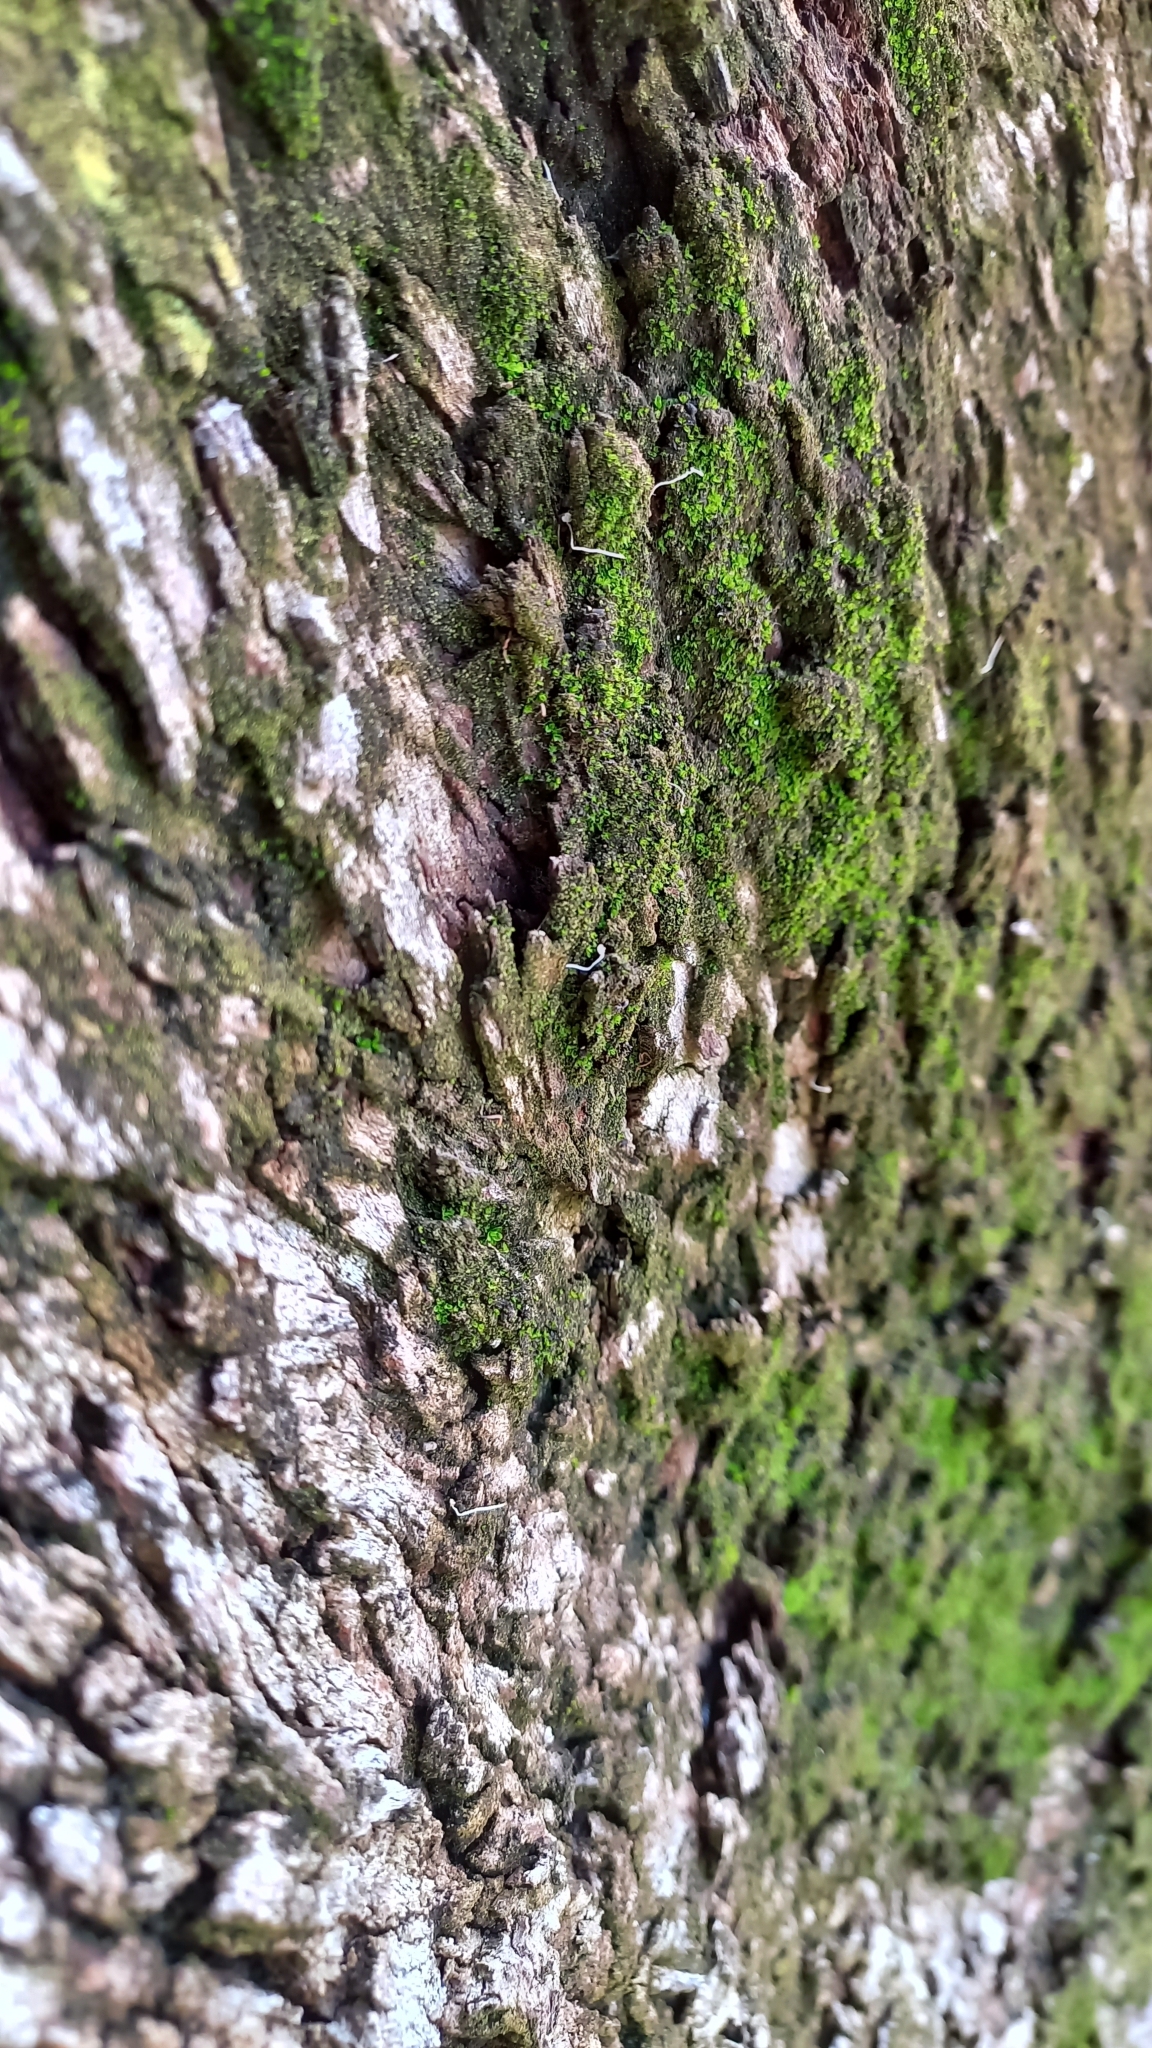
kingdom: Plantae
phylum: Bryophyta
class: Bryopsida
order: Pottiales
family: Pottiaceae
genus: Syntrichia
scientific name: Syntrichia pagorum
